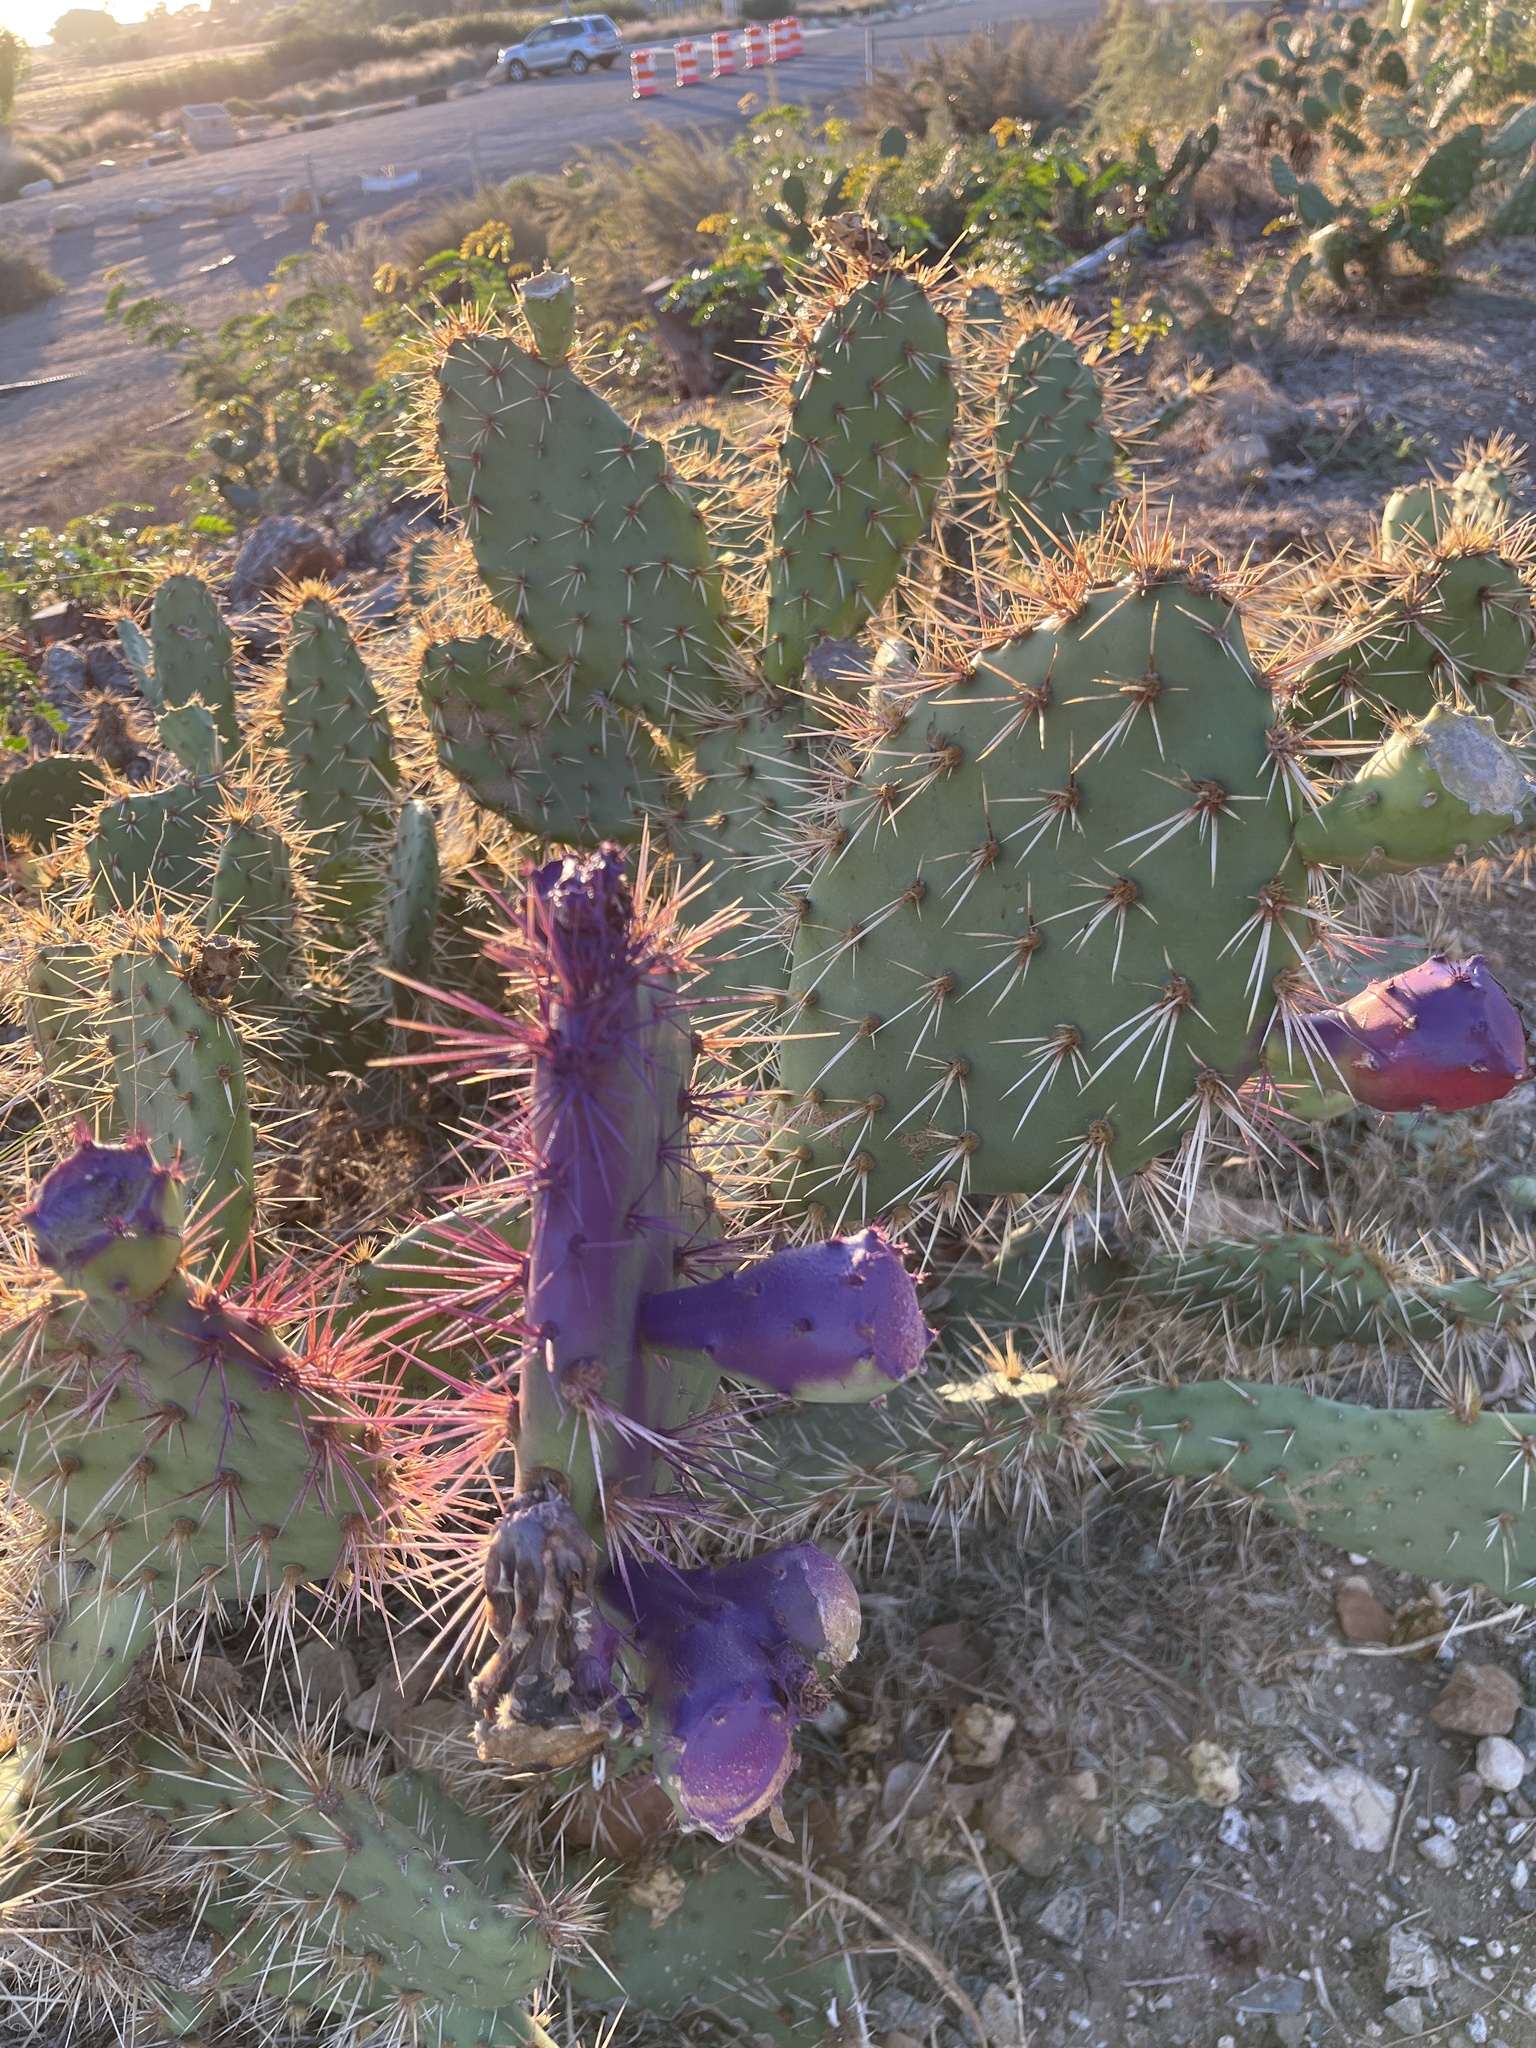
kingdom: Plantae
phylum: Tracheophyta
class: Magnoliopsida
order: Caryophyllales
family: Cactaceae
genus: Opuntia
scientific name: Opuntia littoralis
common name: Coastal prickly-pear
